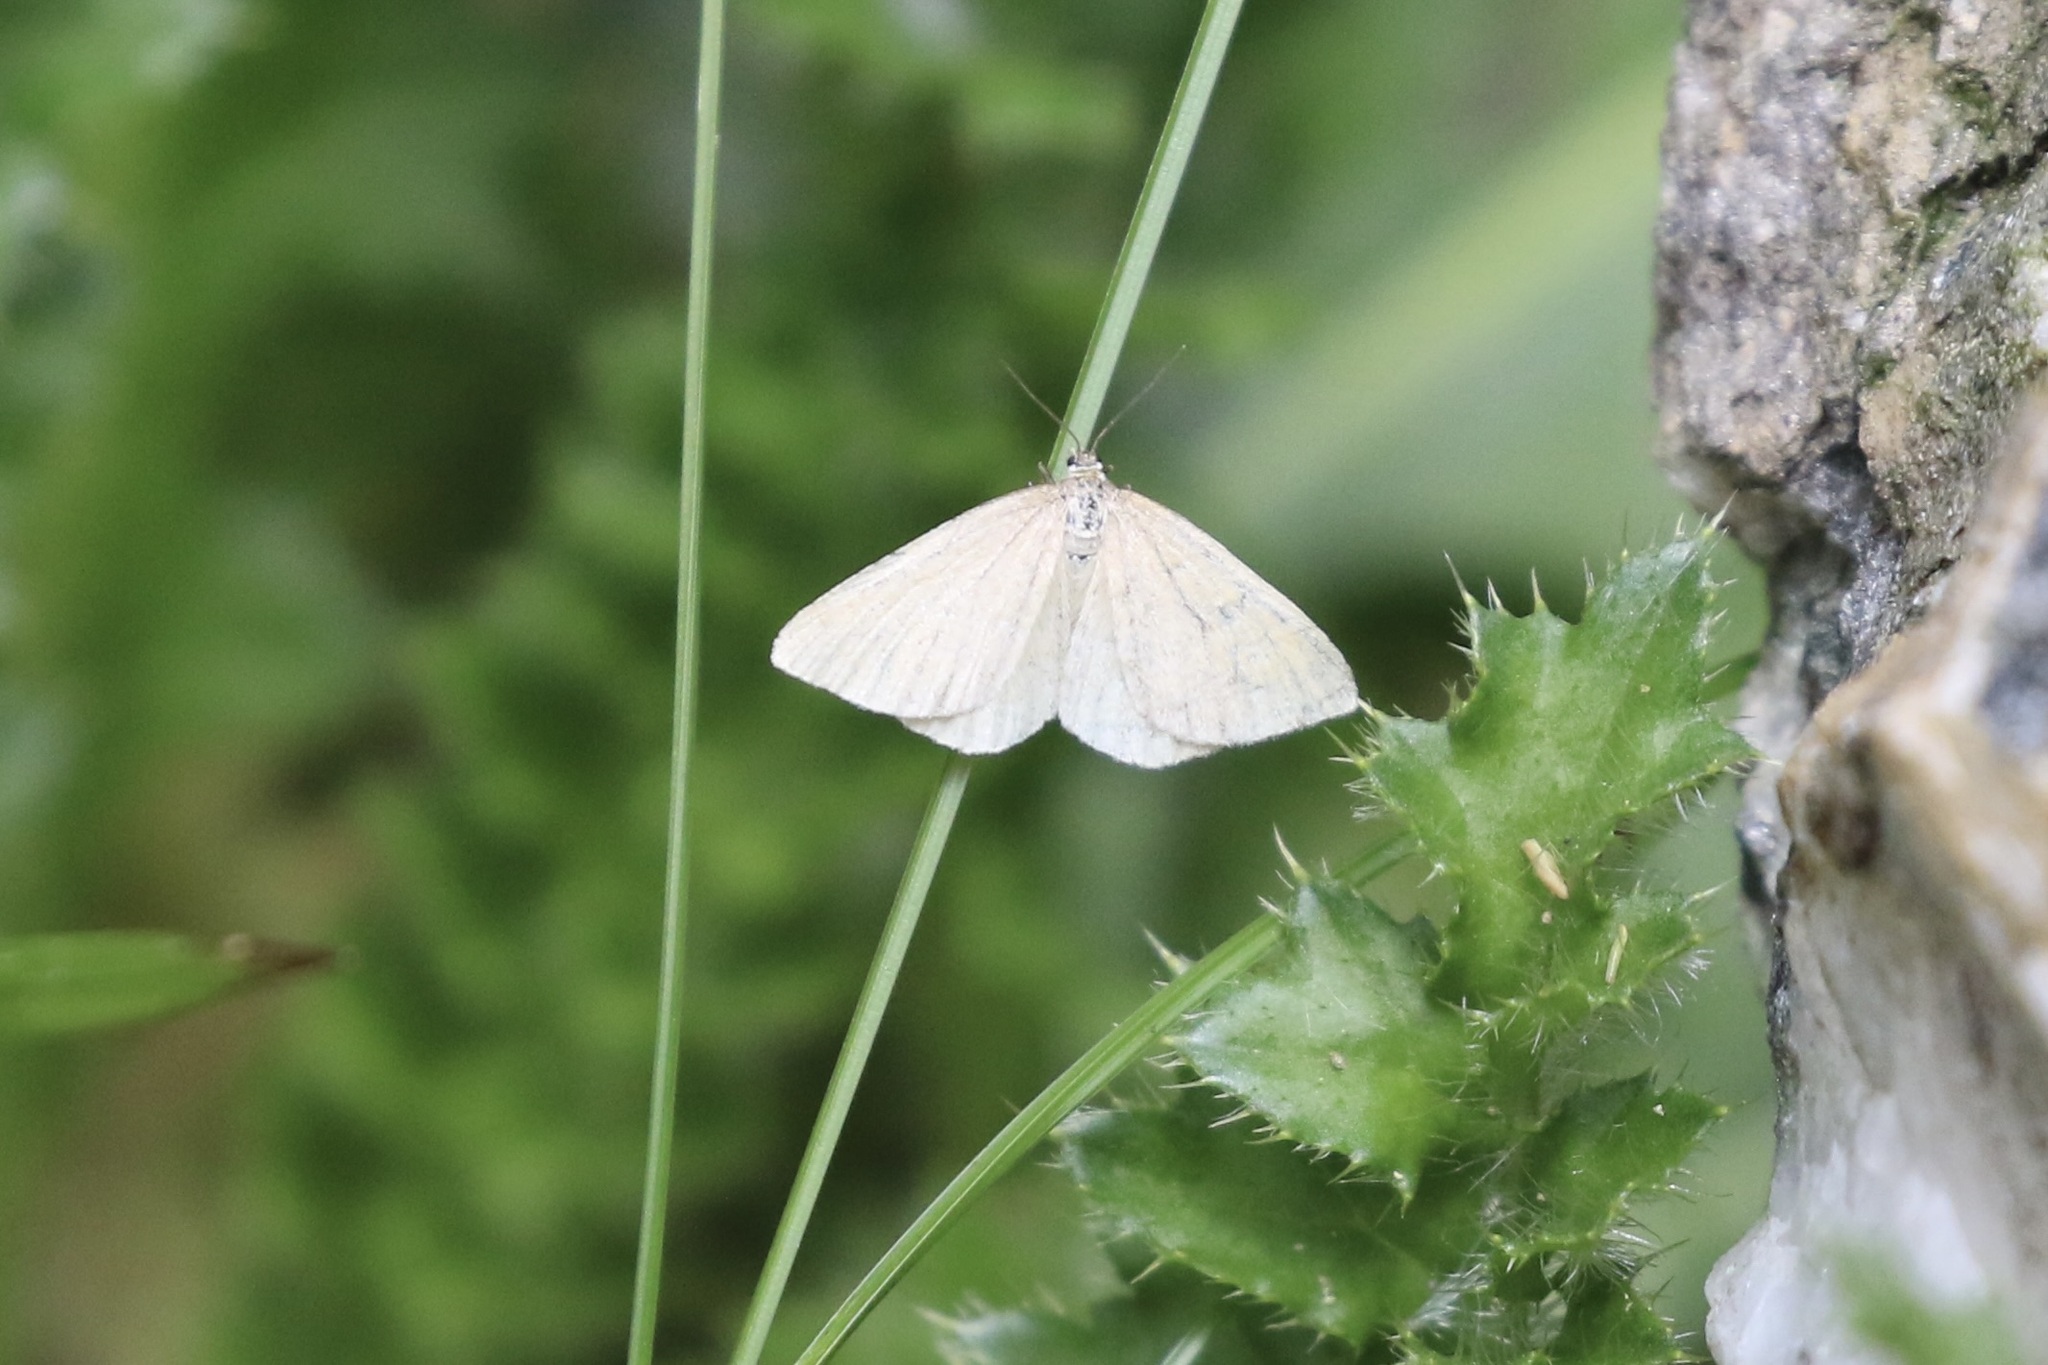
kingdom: Animalia
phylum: Arthropoda
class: Insecta
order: Lepidoptera
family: Geometridae
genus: Minoa
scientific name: Minoa murinata
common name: Drab looper
